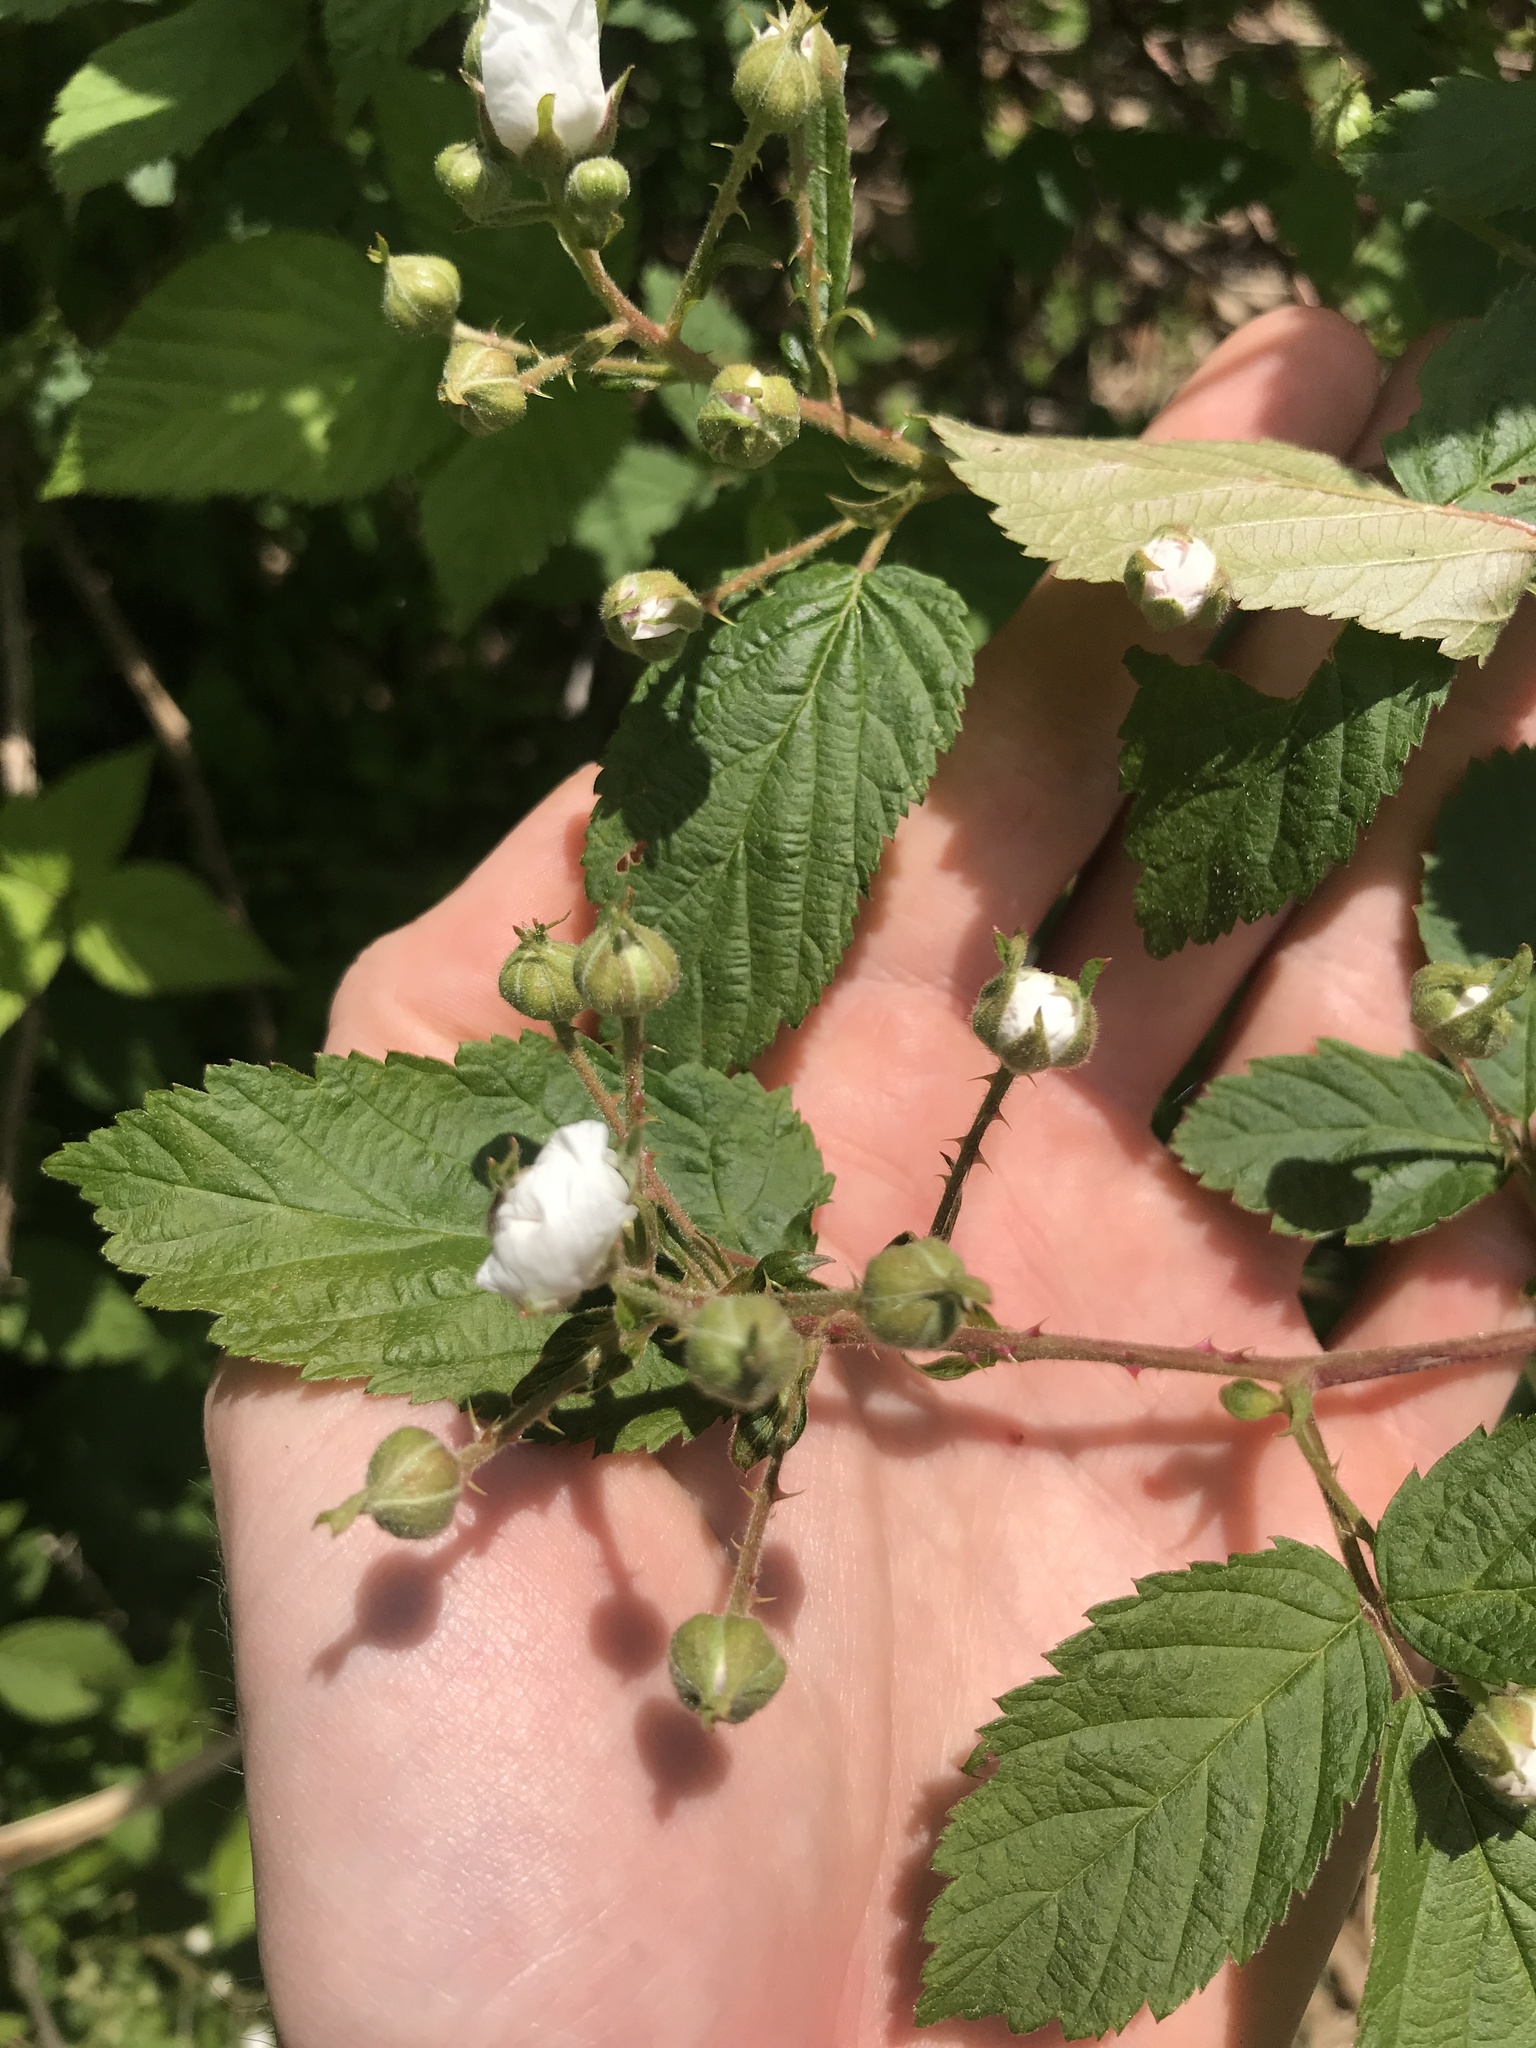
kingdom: Plantae
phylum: Tracheophyta
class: Magnoliopsida
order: Rosales
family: Rosaceae
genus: Rubus
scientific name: Rubus pensilvanicus
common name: Pennsylvania blackberry
